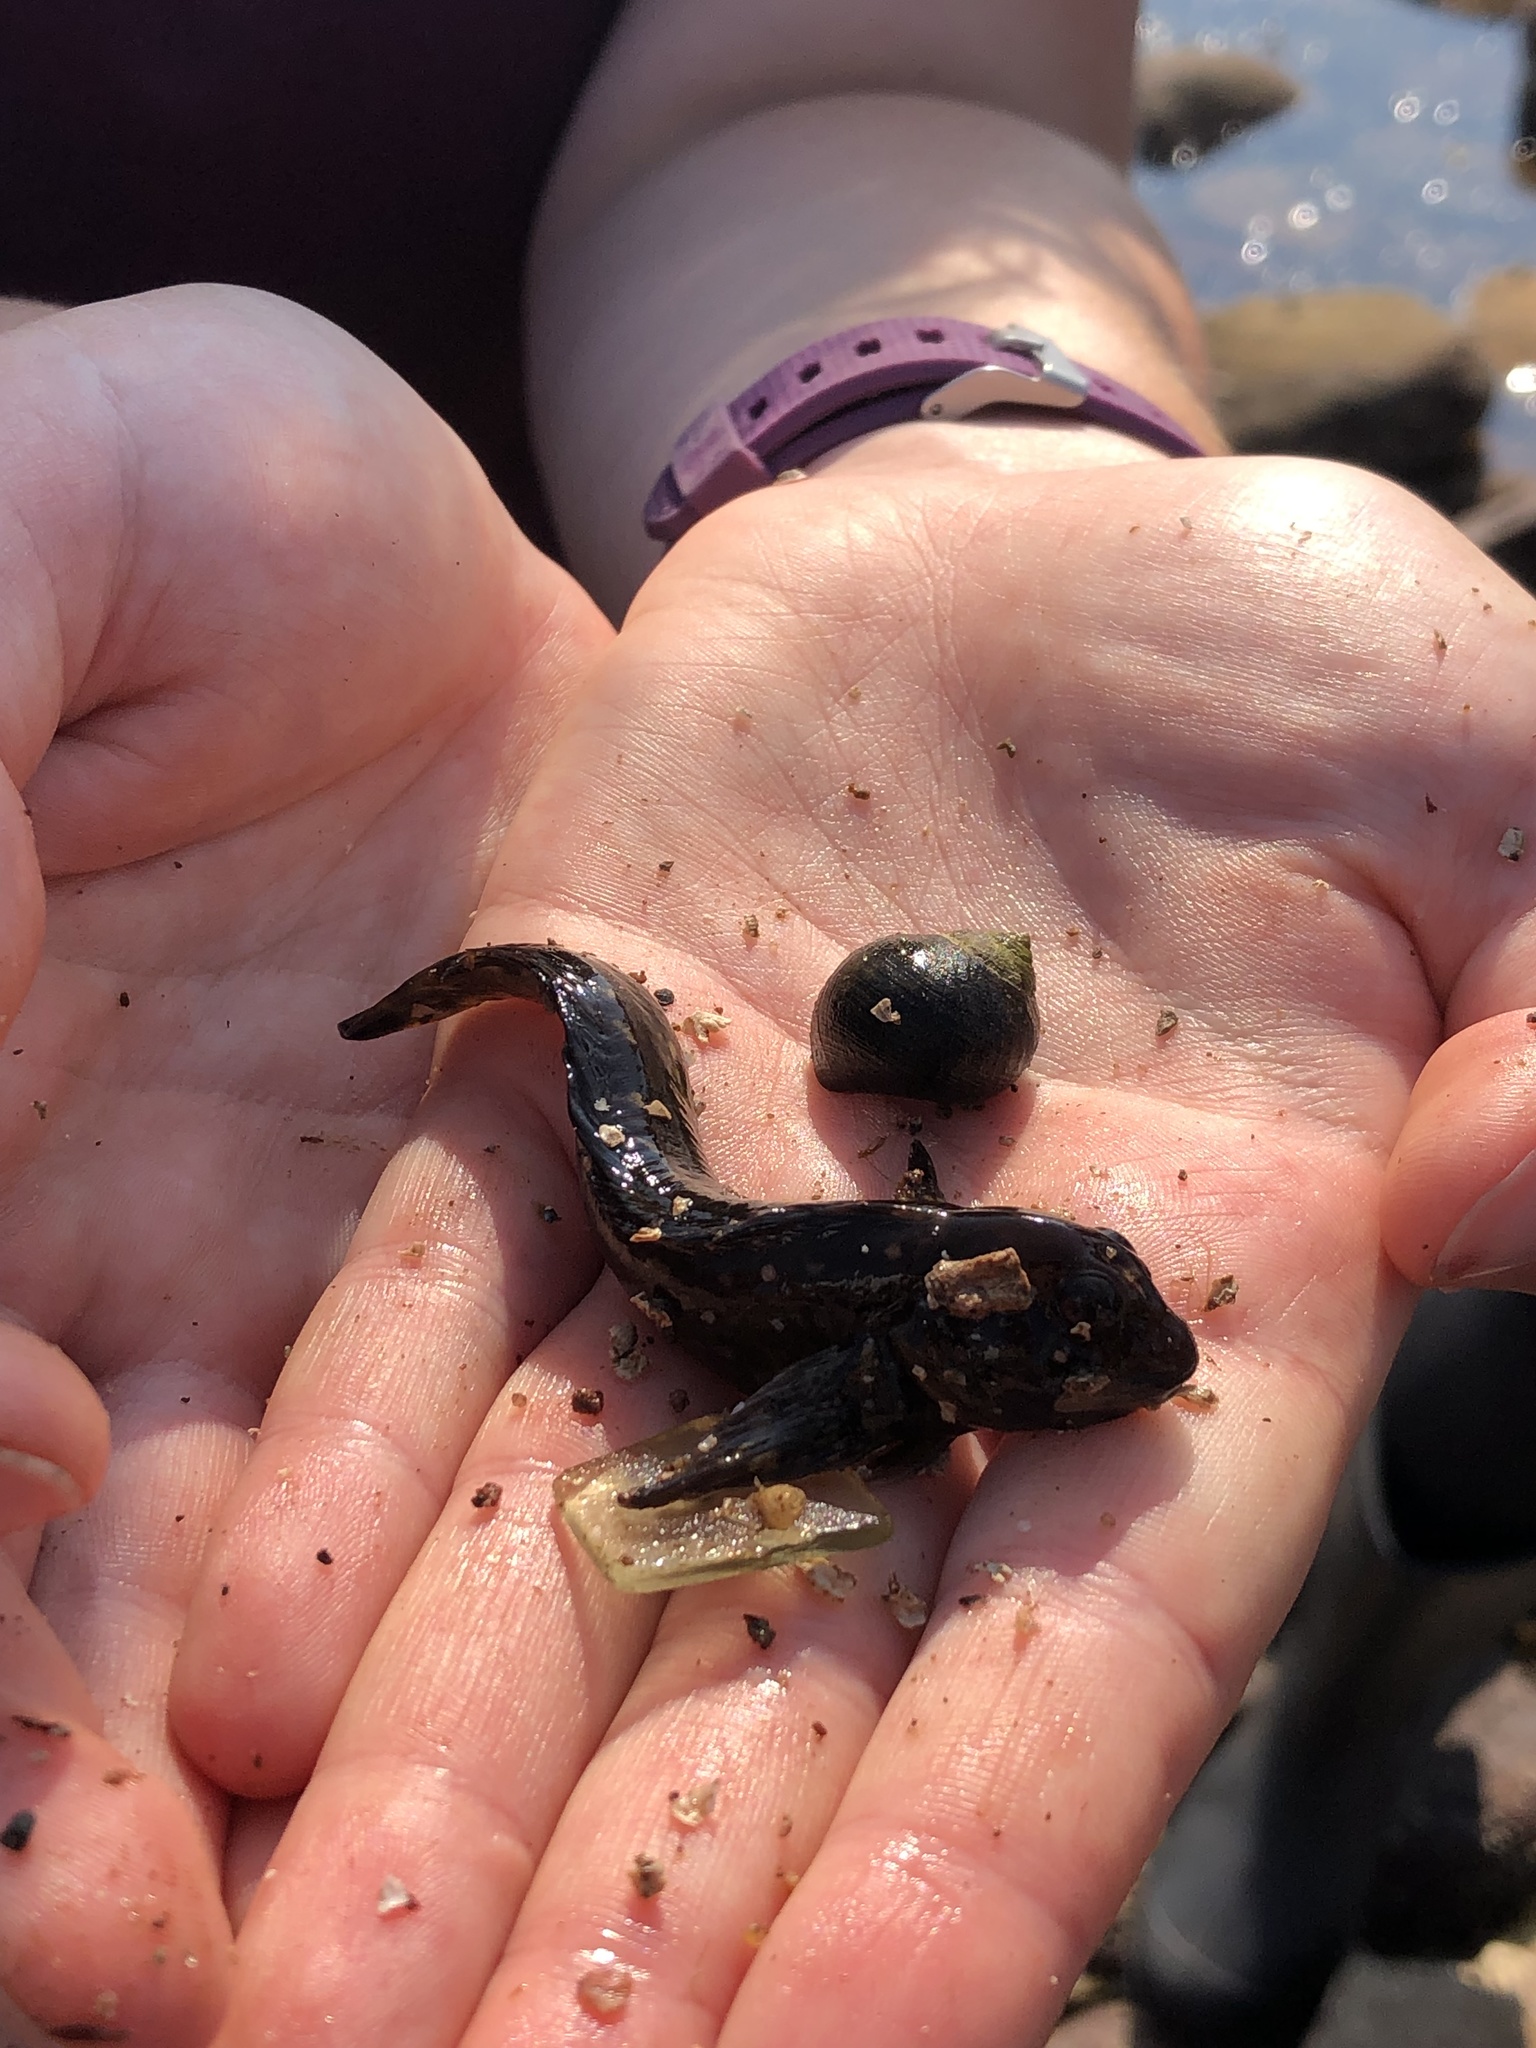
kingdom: Animalia
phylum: Chordata
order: Perciformes
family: Blenniidae
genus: Lipophrys
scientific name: Lipophrys pholis
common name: Shanny
